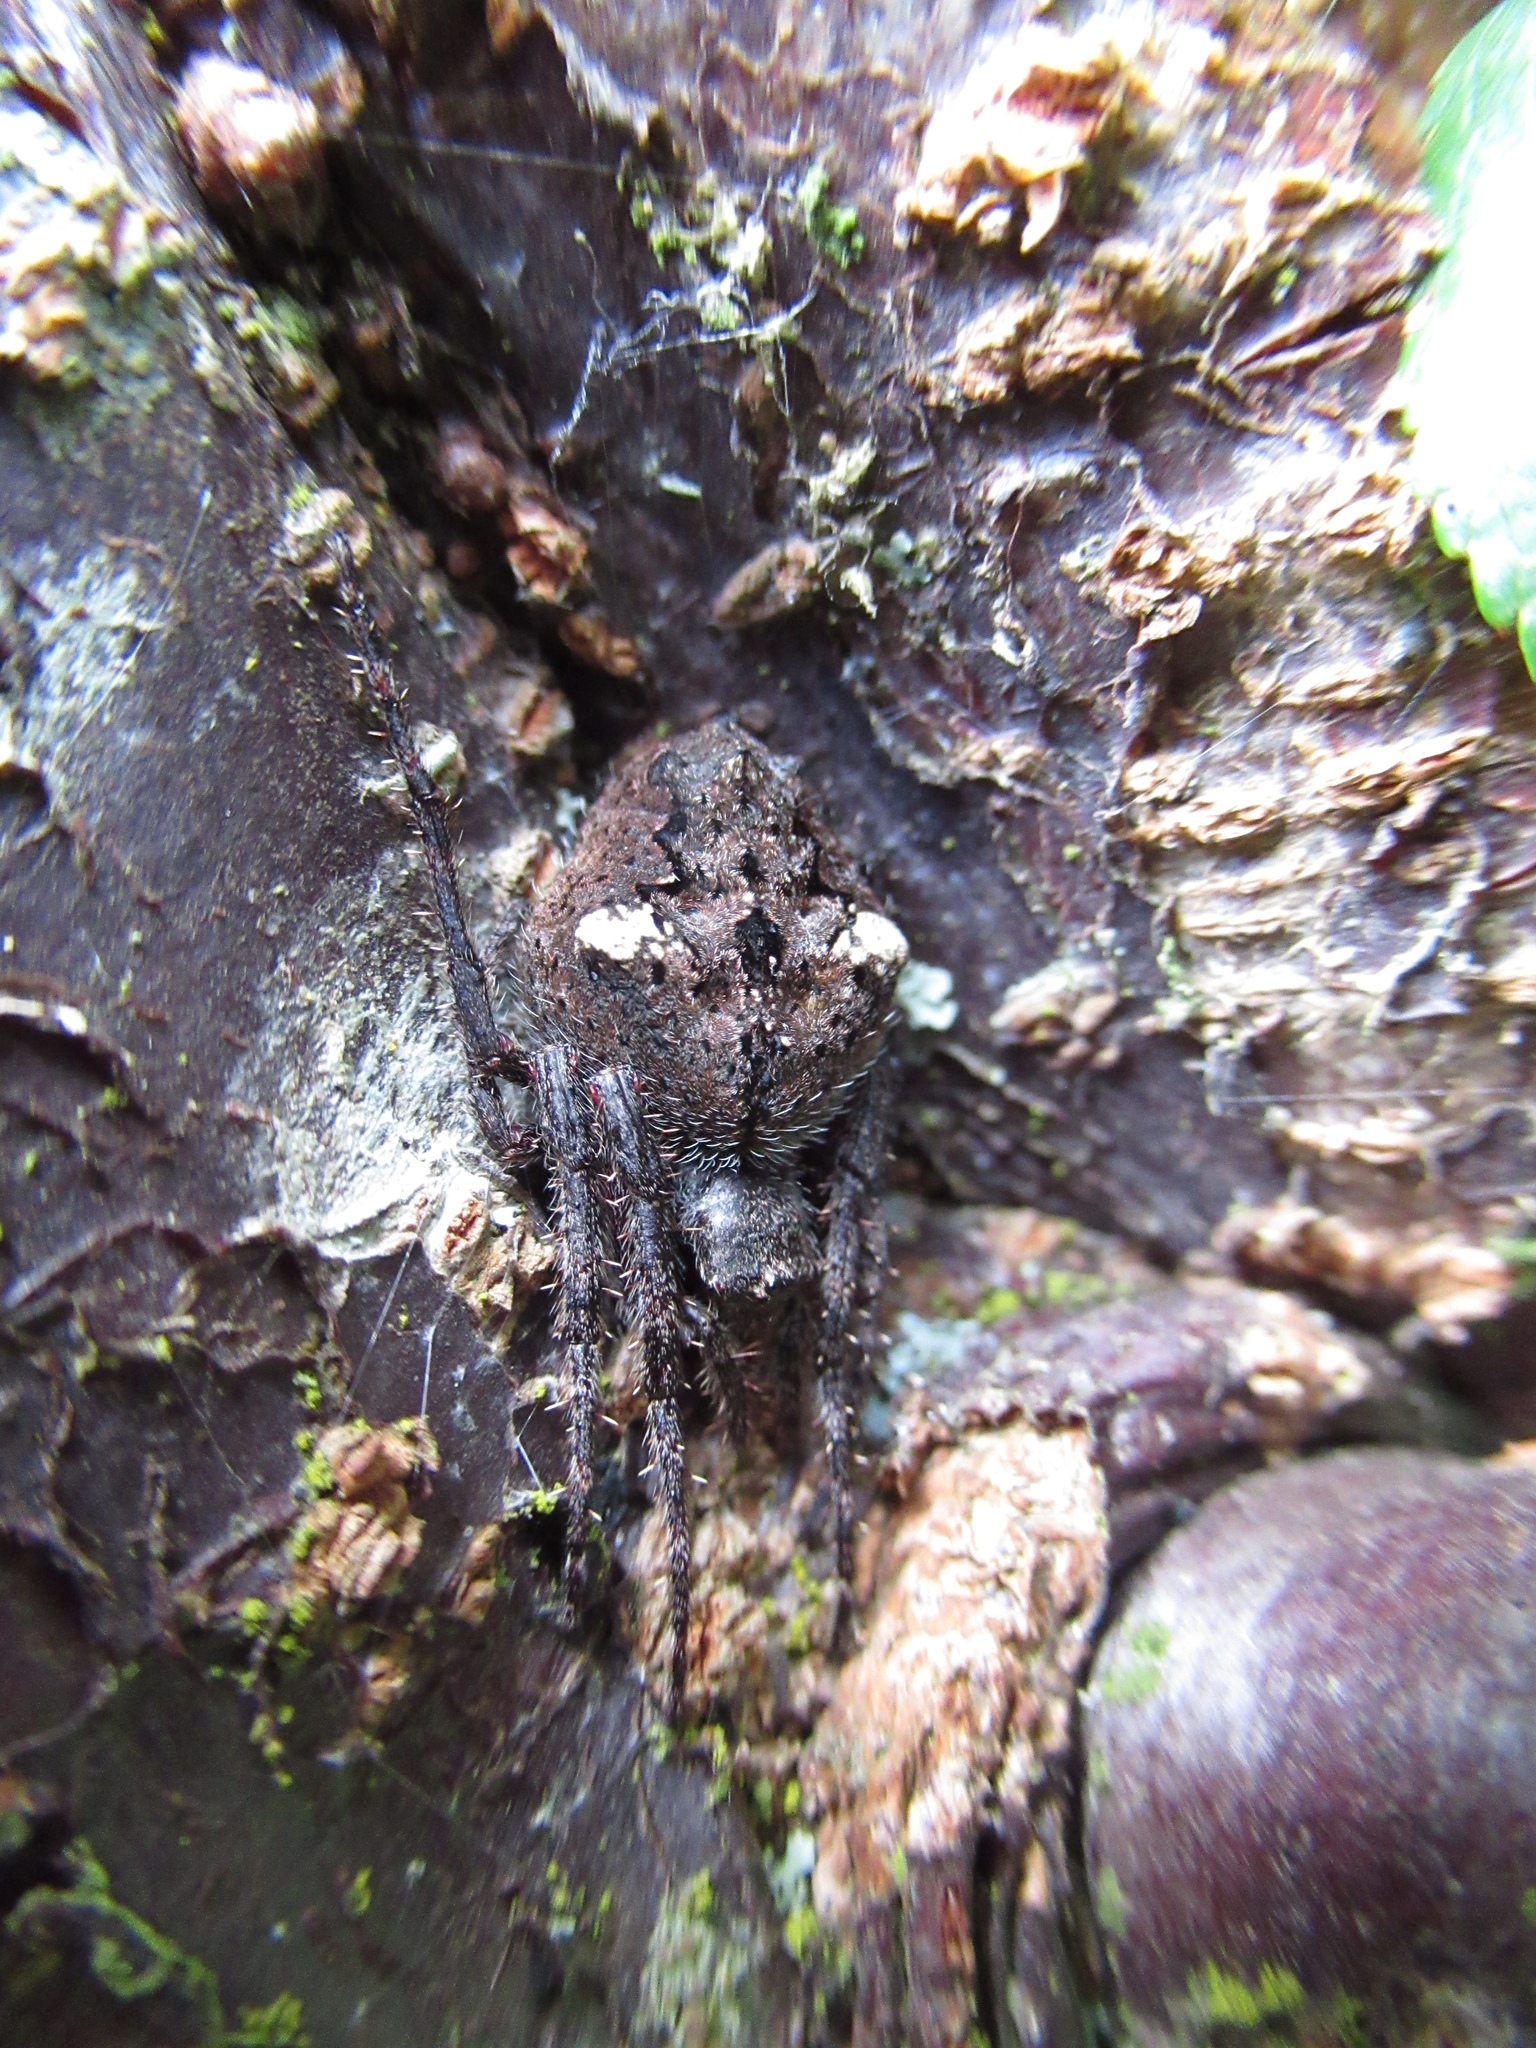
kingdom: Animalia
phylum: Arthropoda
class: Arachnida
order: Araneae
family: Araneidae
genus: Eriophora
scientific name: Eriophora pustulosa
